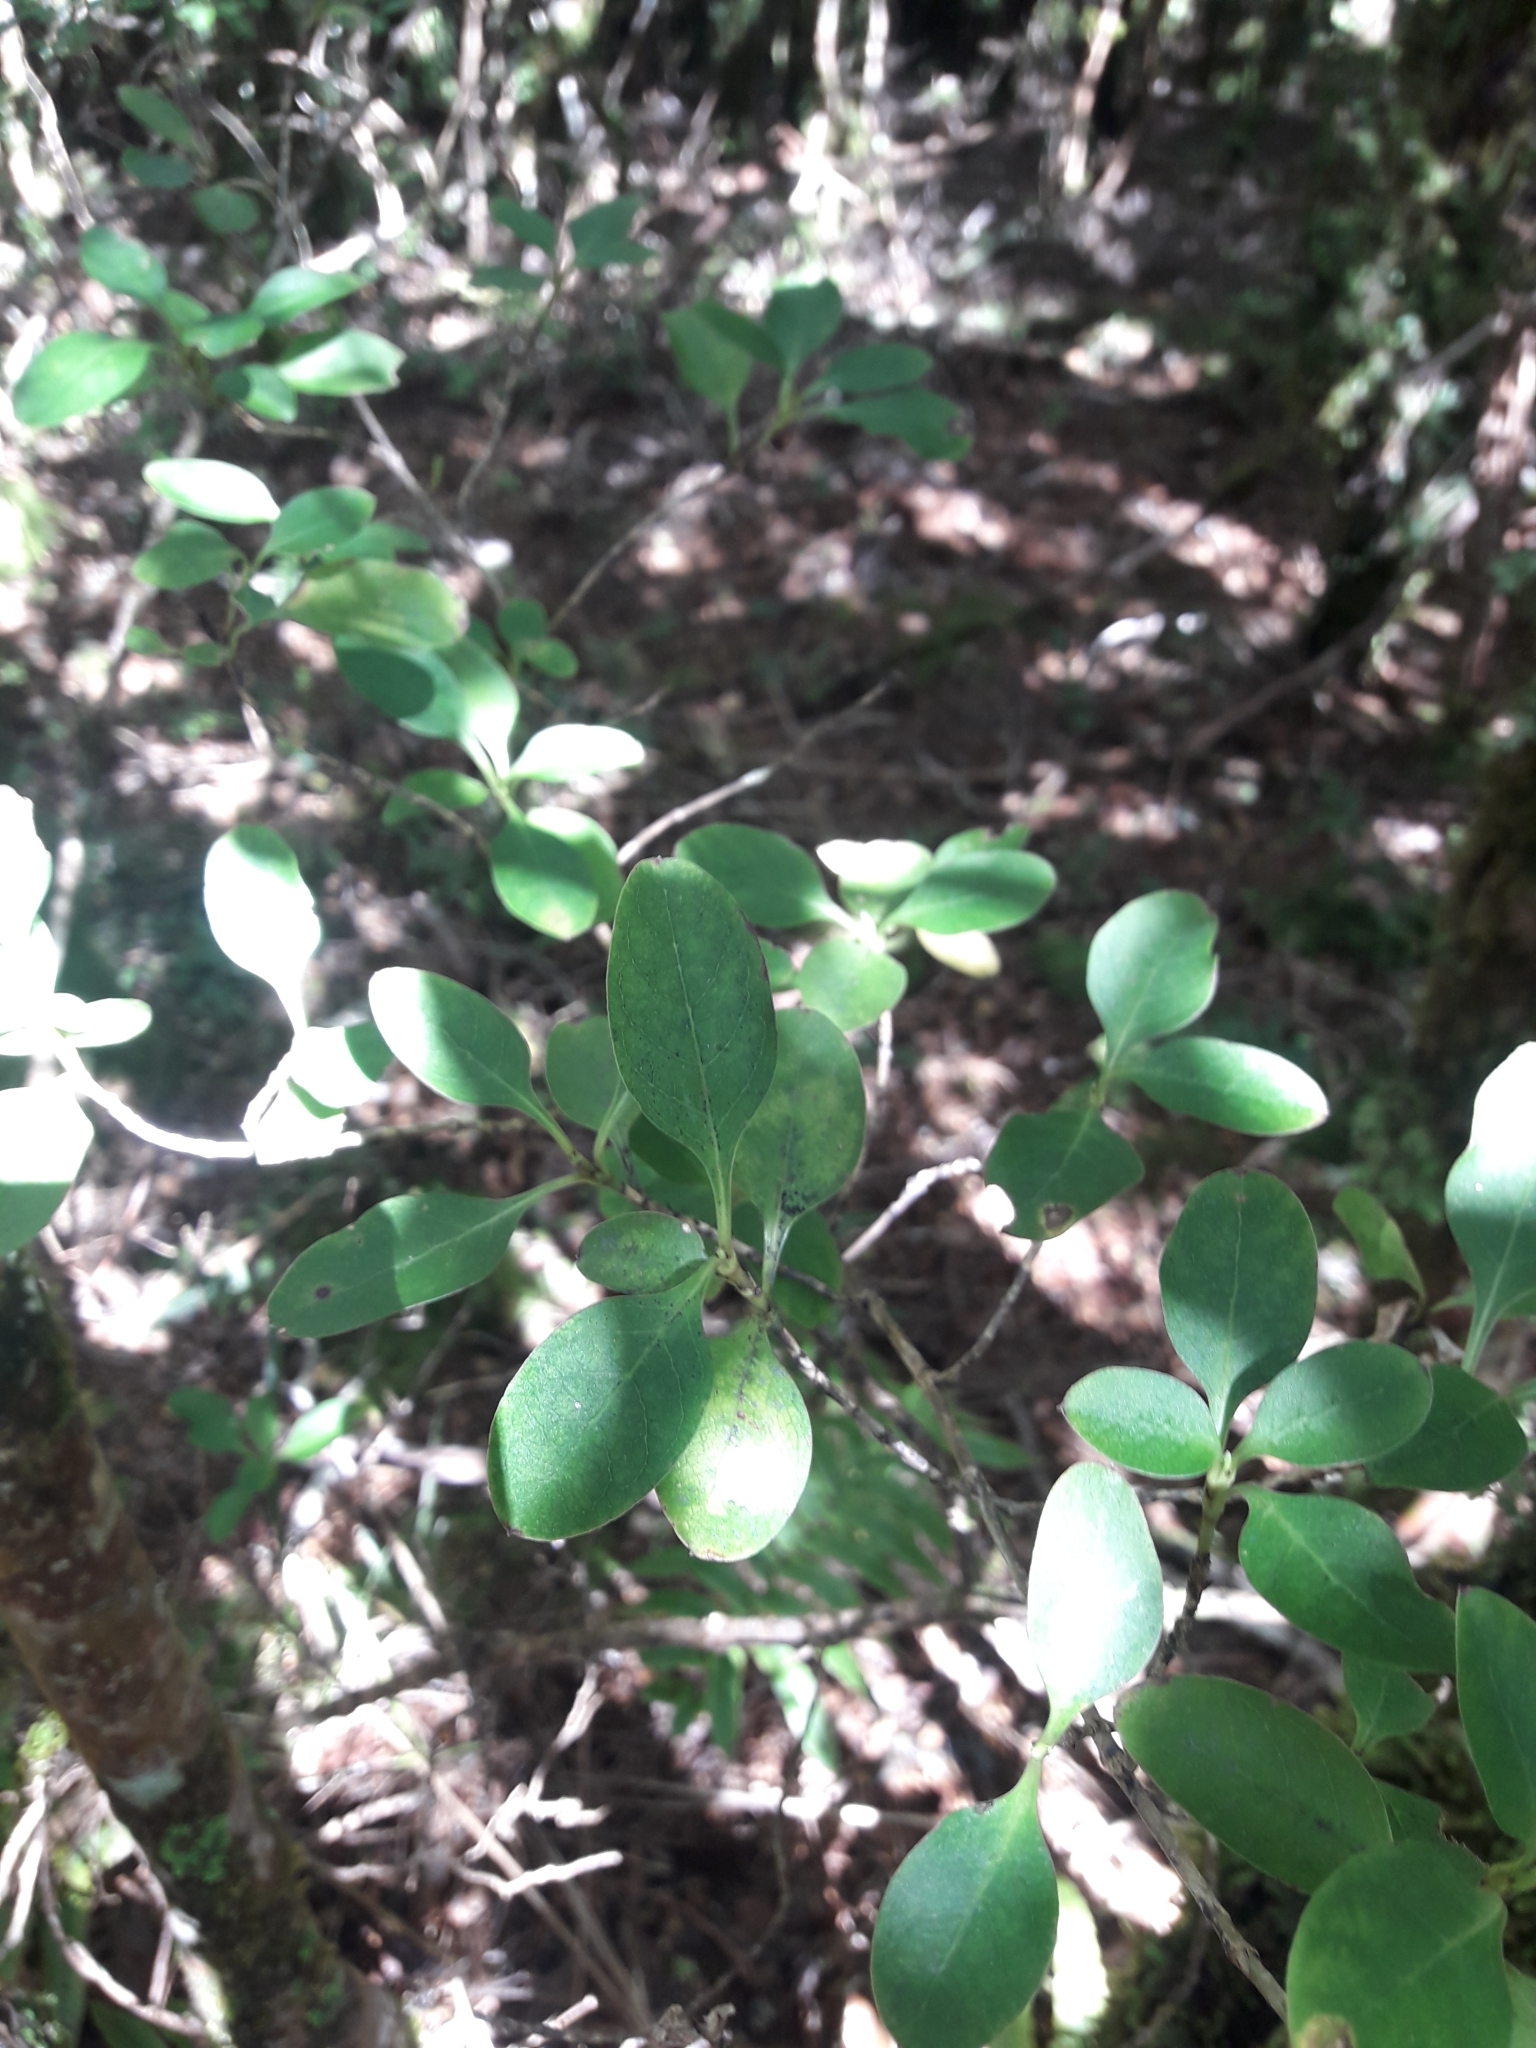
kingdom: Plantae
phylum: Tracheophyta
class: Magnoliopsida
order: Gentianales
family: Rubiaceae
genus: Coprosma
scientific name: Coprosma foetidissima
